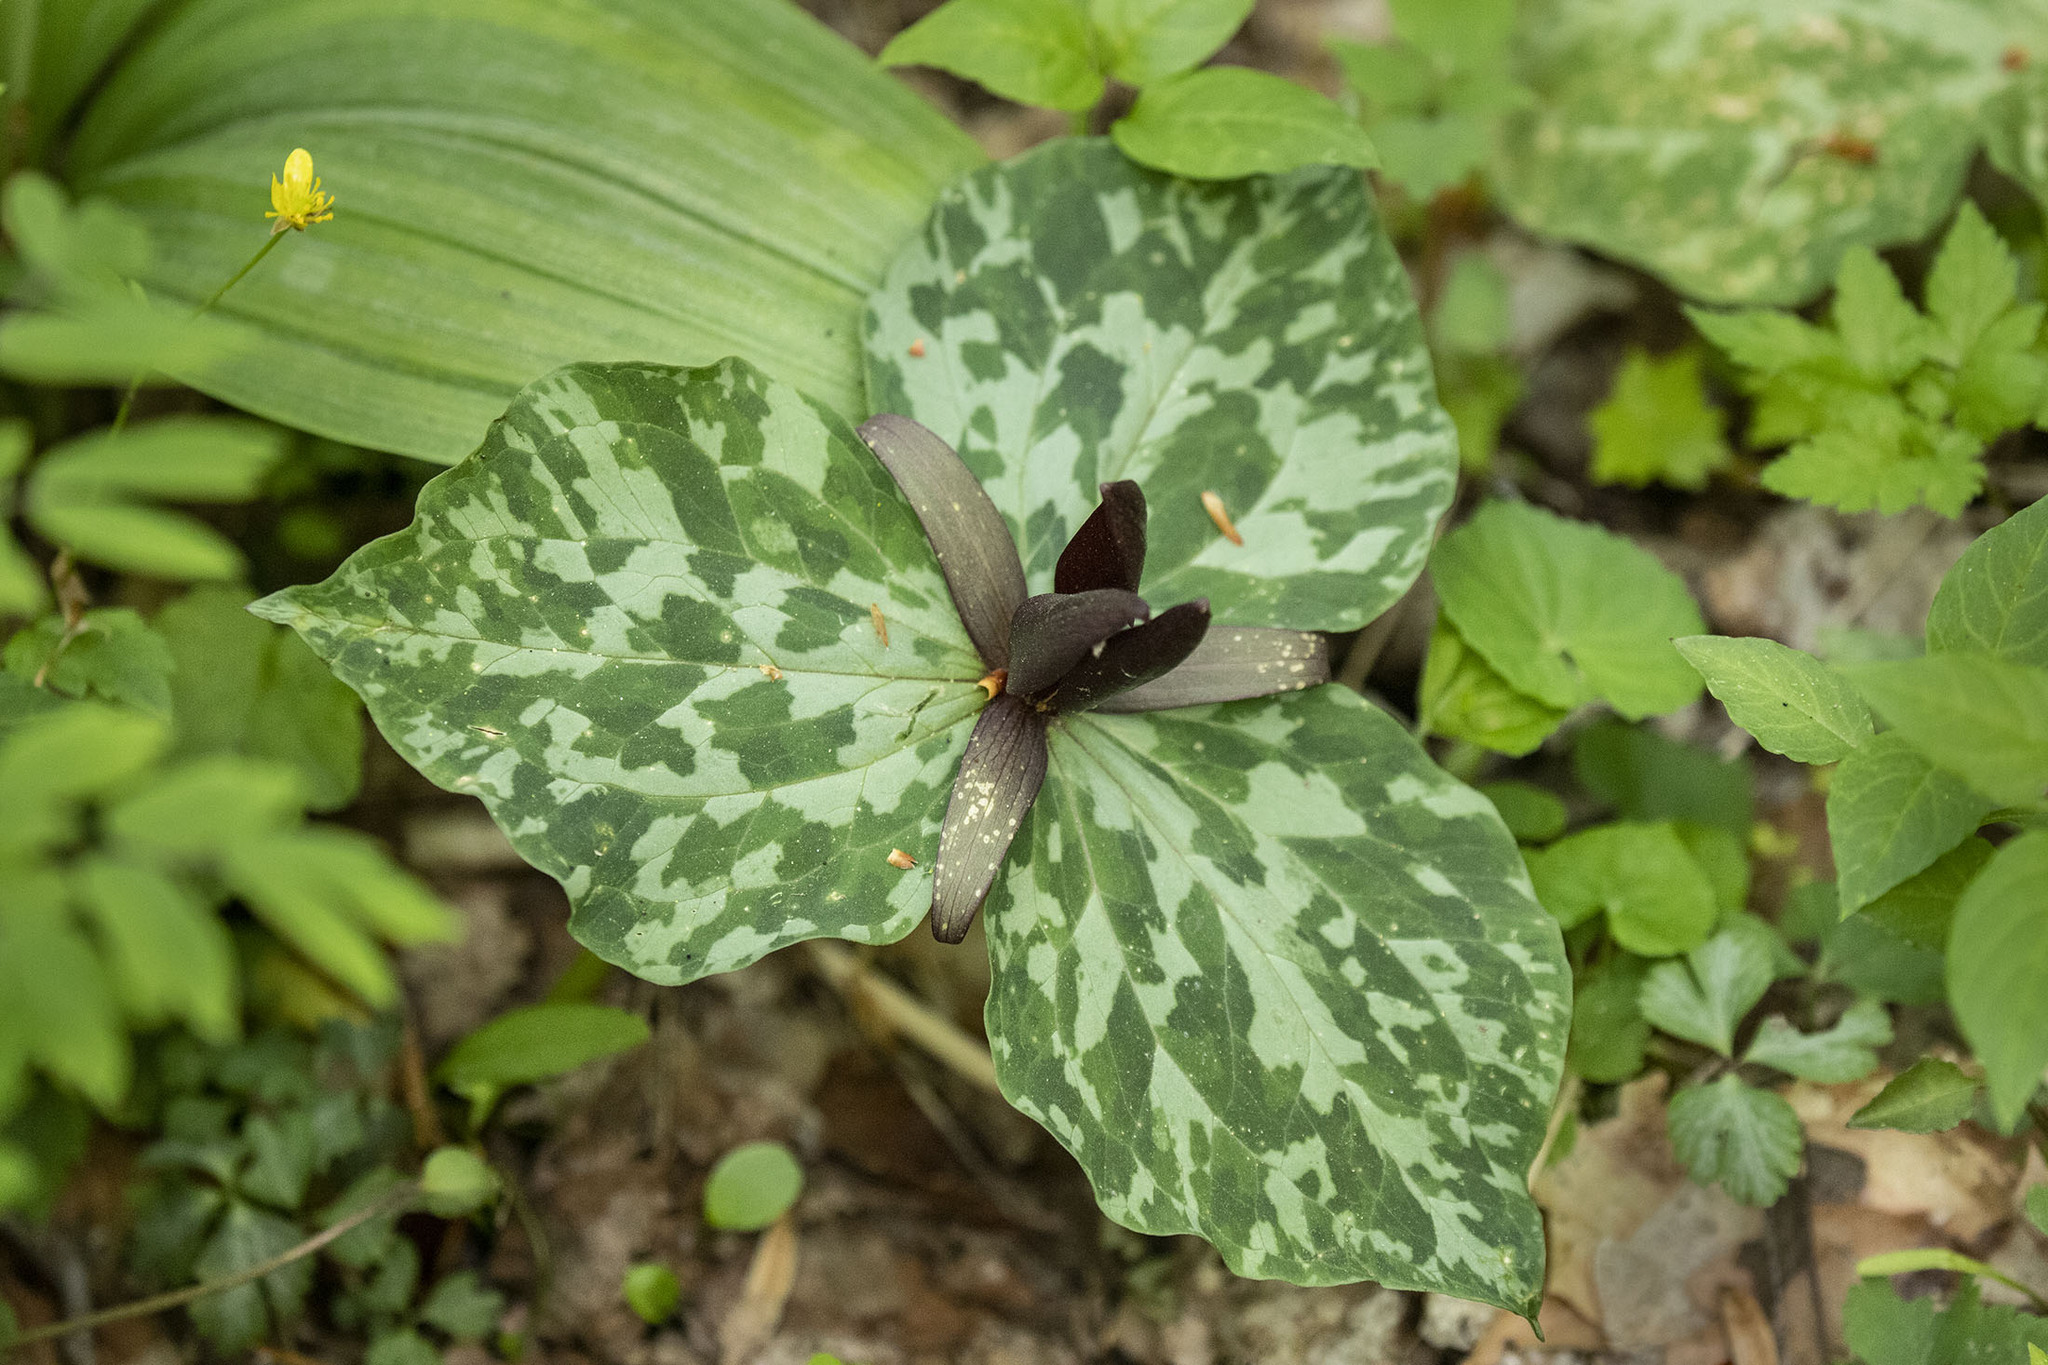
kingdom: Plantae
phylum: Tracheophyta
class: Liliopsida
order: Liliales
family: Melanthiaceae
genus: Trillium
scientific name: Trillium cuneatum
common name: Cuneate trillium
